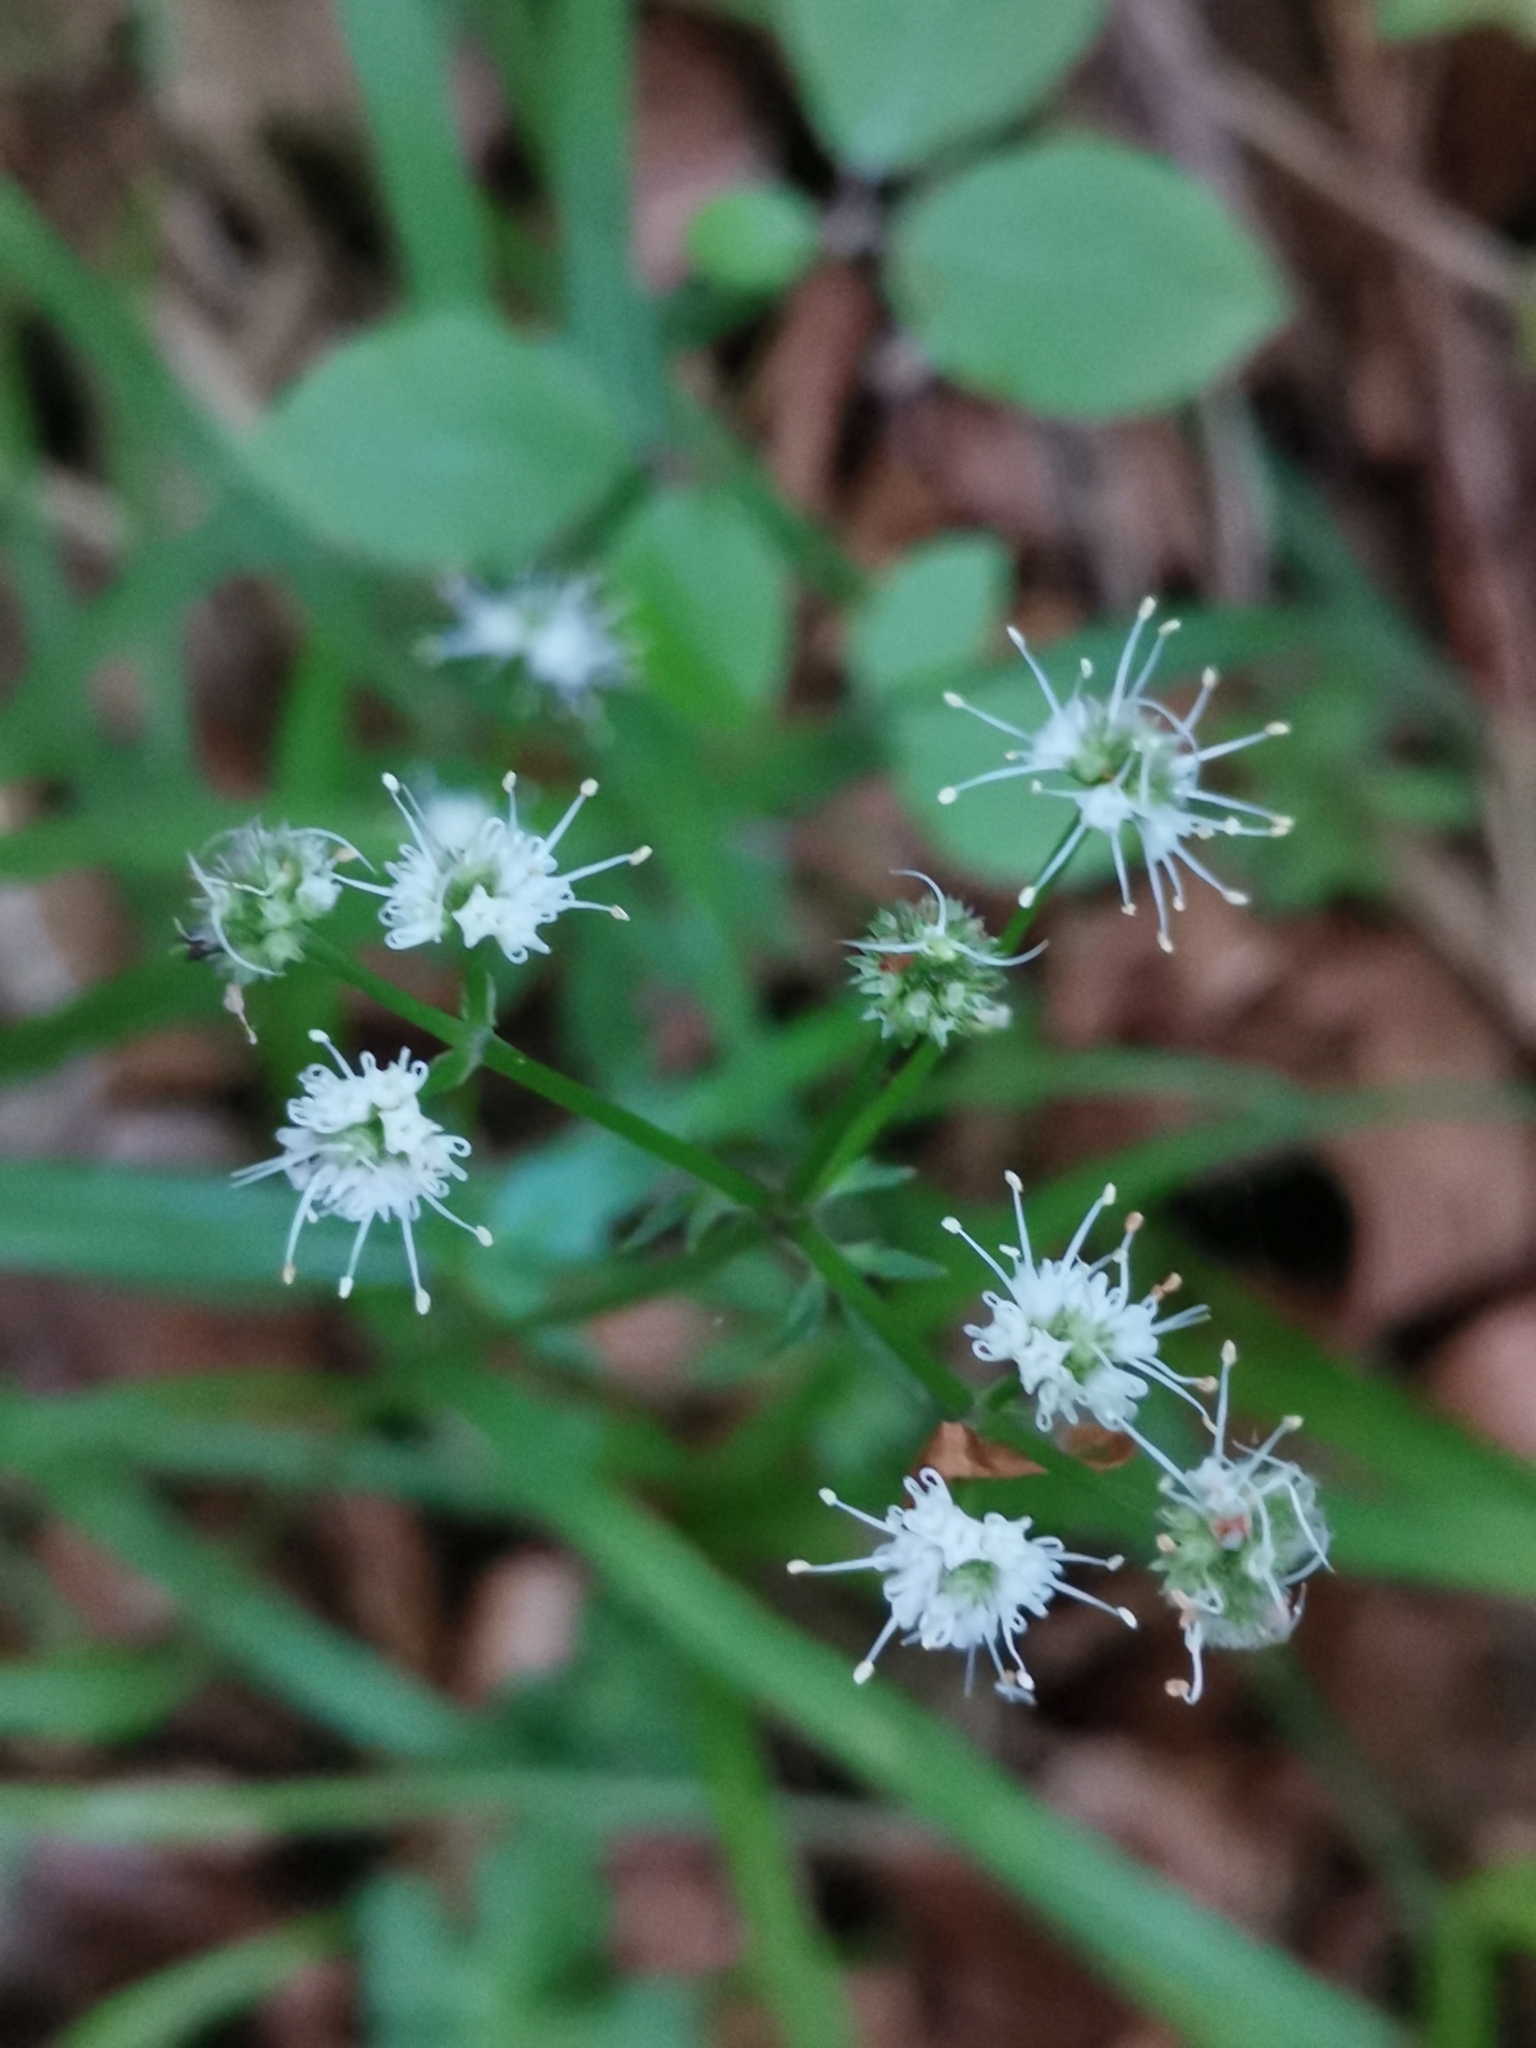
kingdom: Plantae
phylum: Tracheophyta
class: Magnoliopsida
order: Apiales
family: Apiaceae
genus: Sanicula
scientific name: Sanicula europaea
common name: Sanicle
